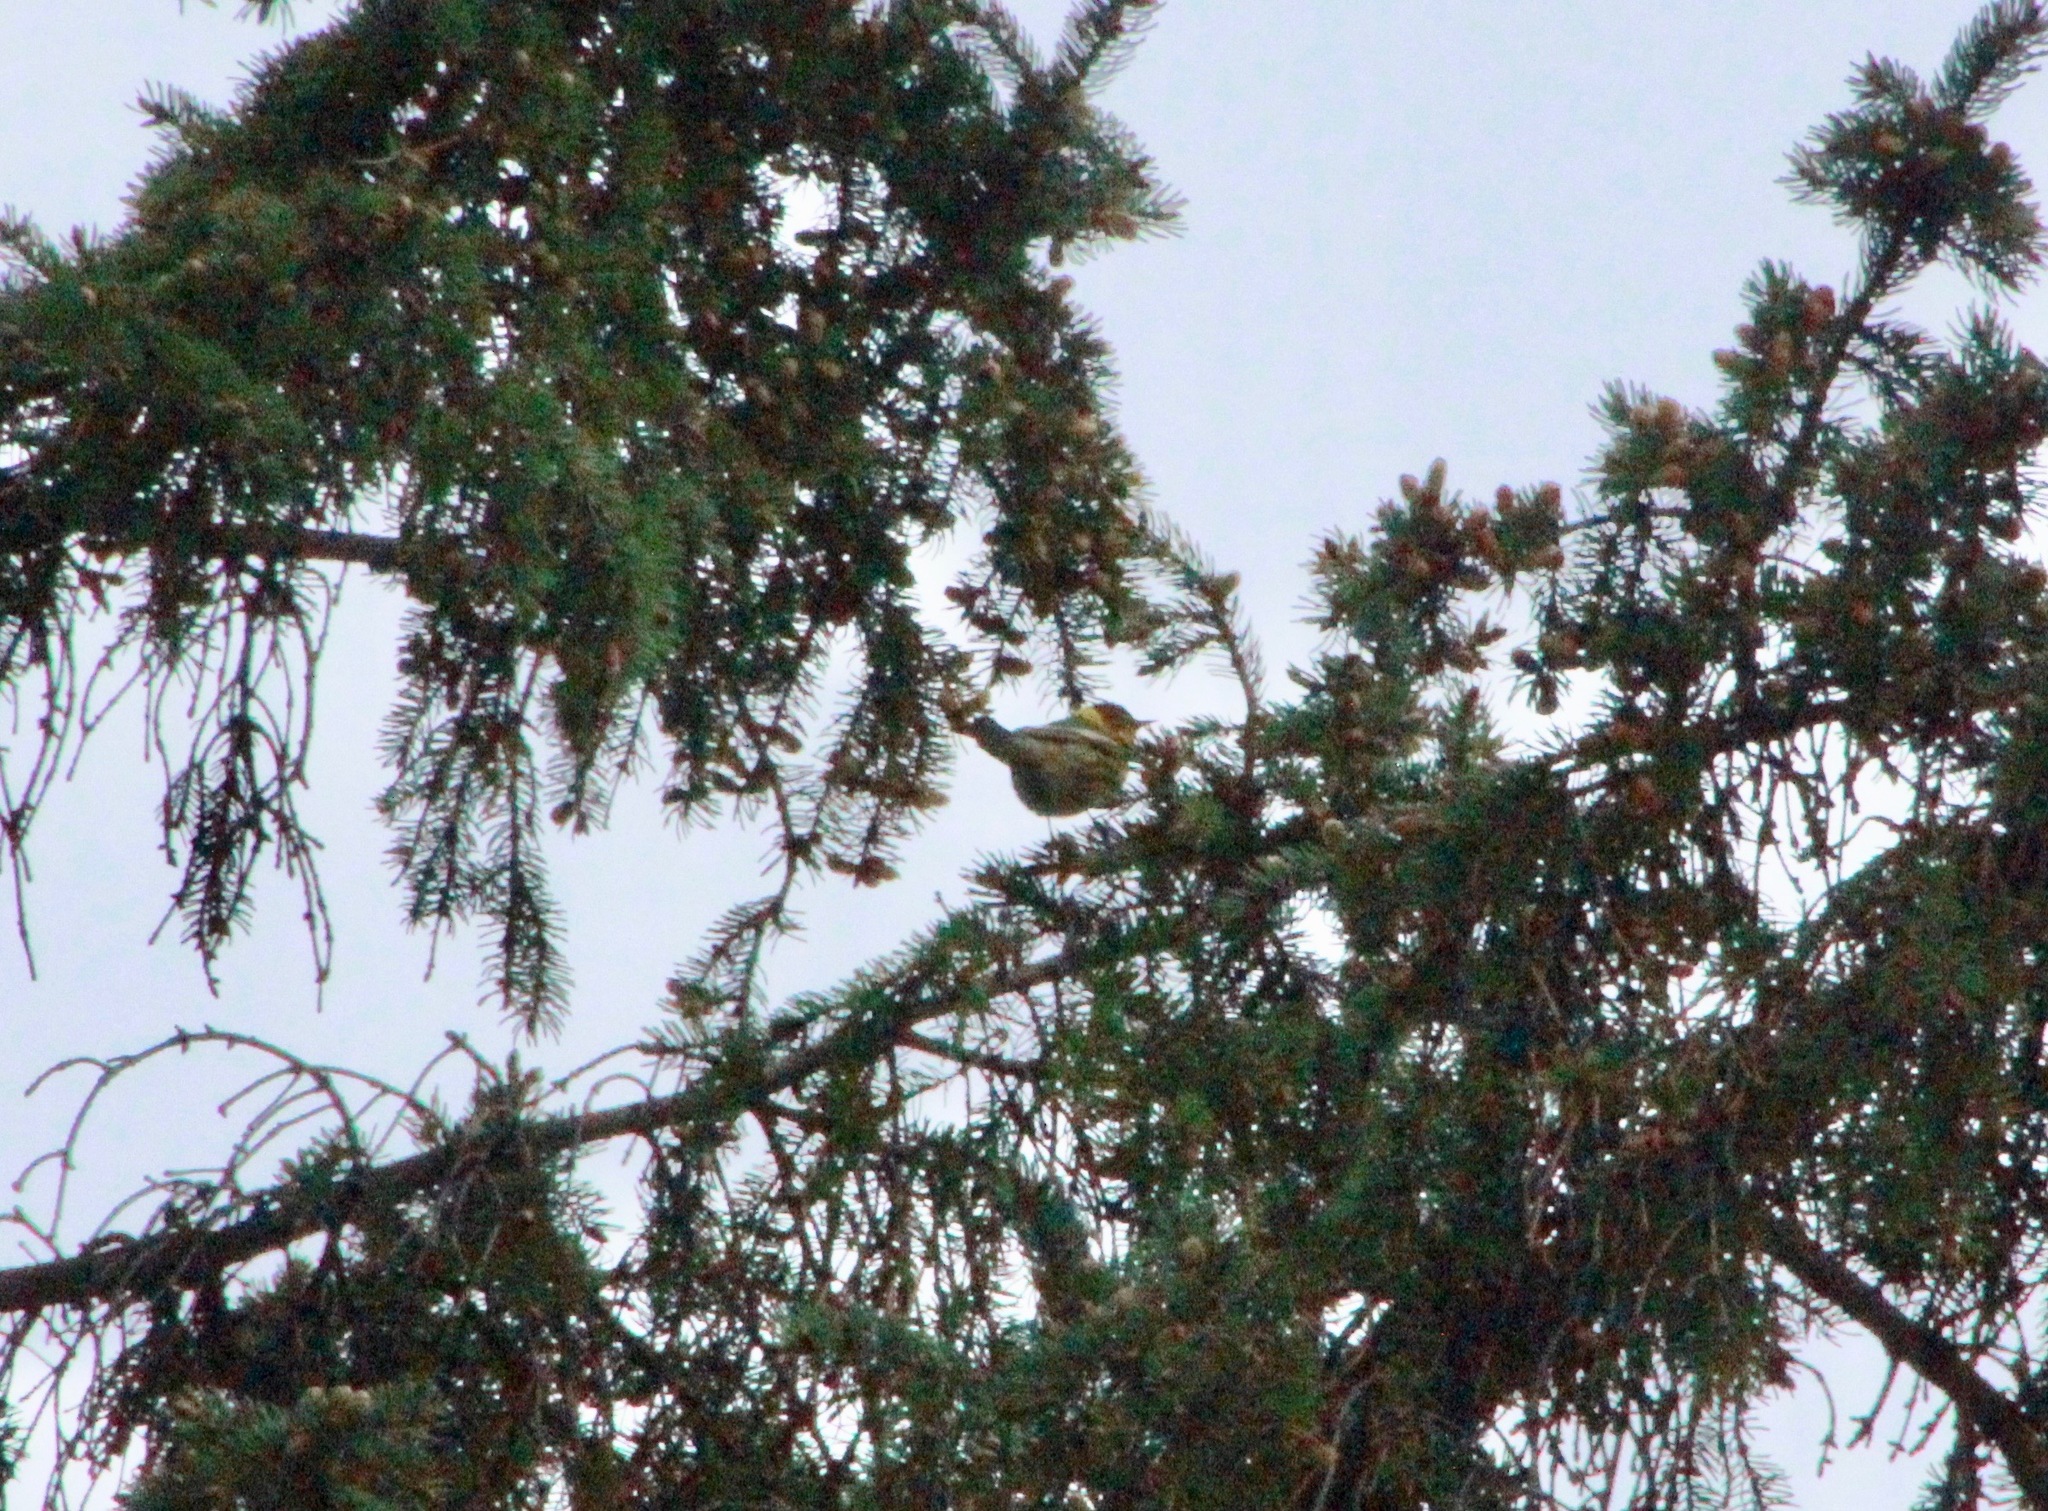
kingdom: Animalia
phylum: Chordata
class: Aves
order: Passeriformes
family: Parulidae
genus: Setophaga
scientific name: Setophaga tigrina
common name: Cape may warbler
